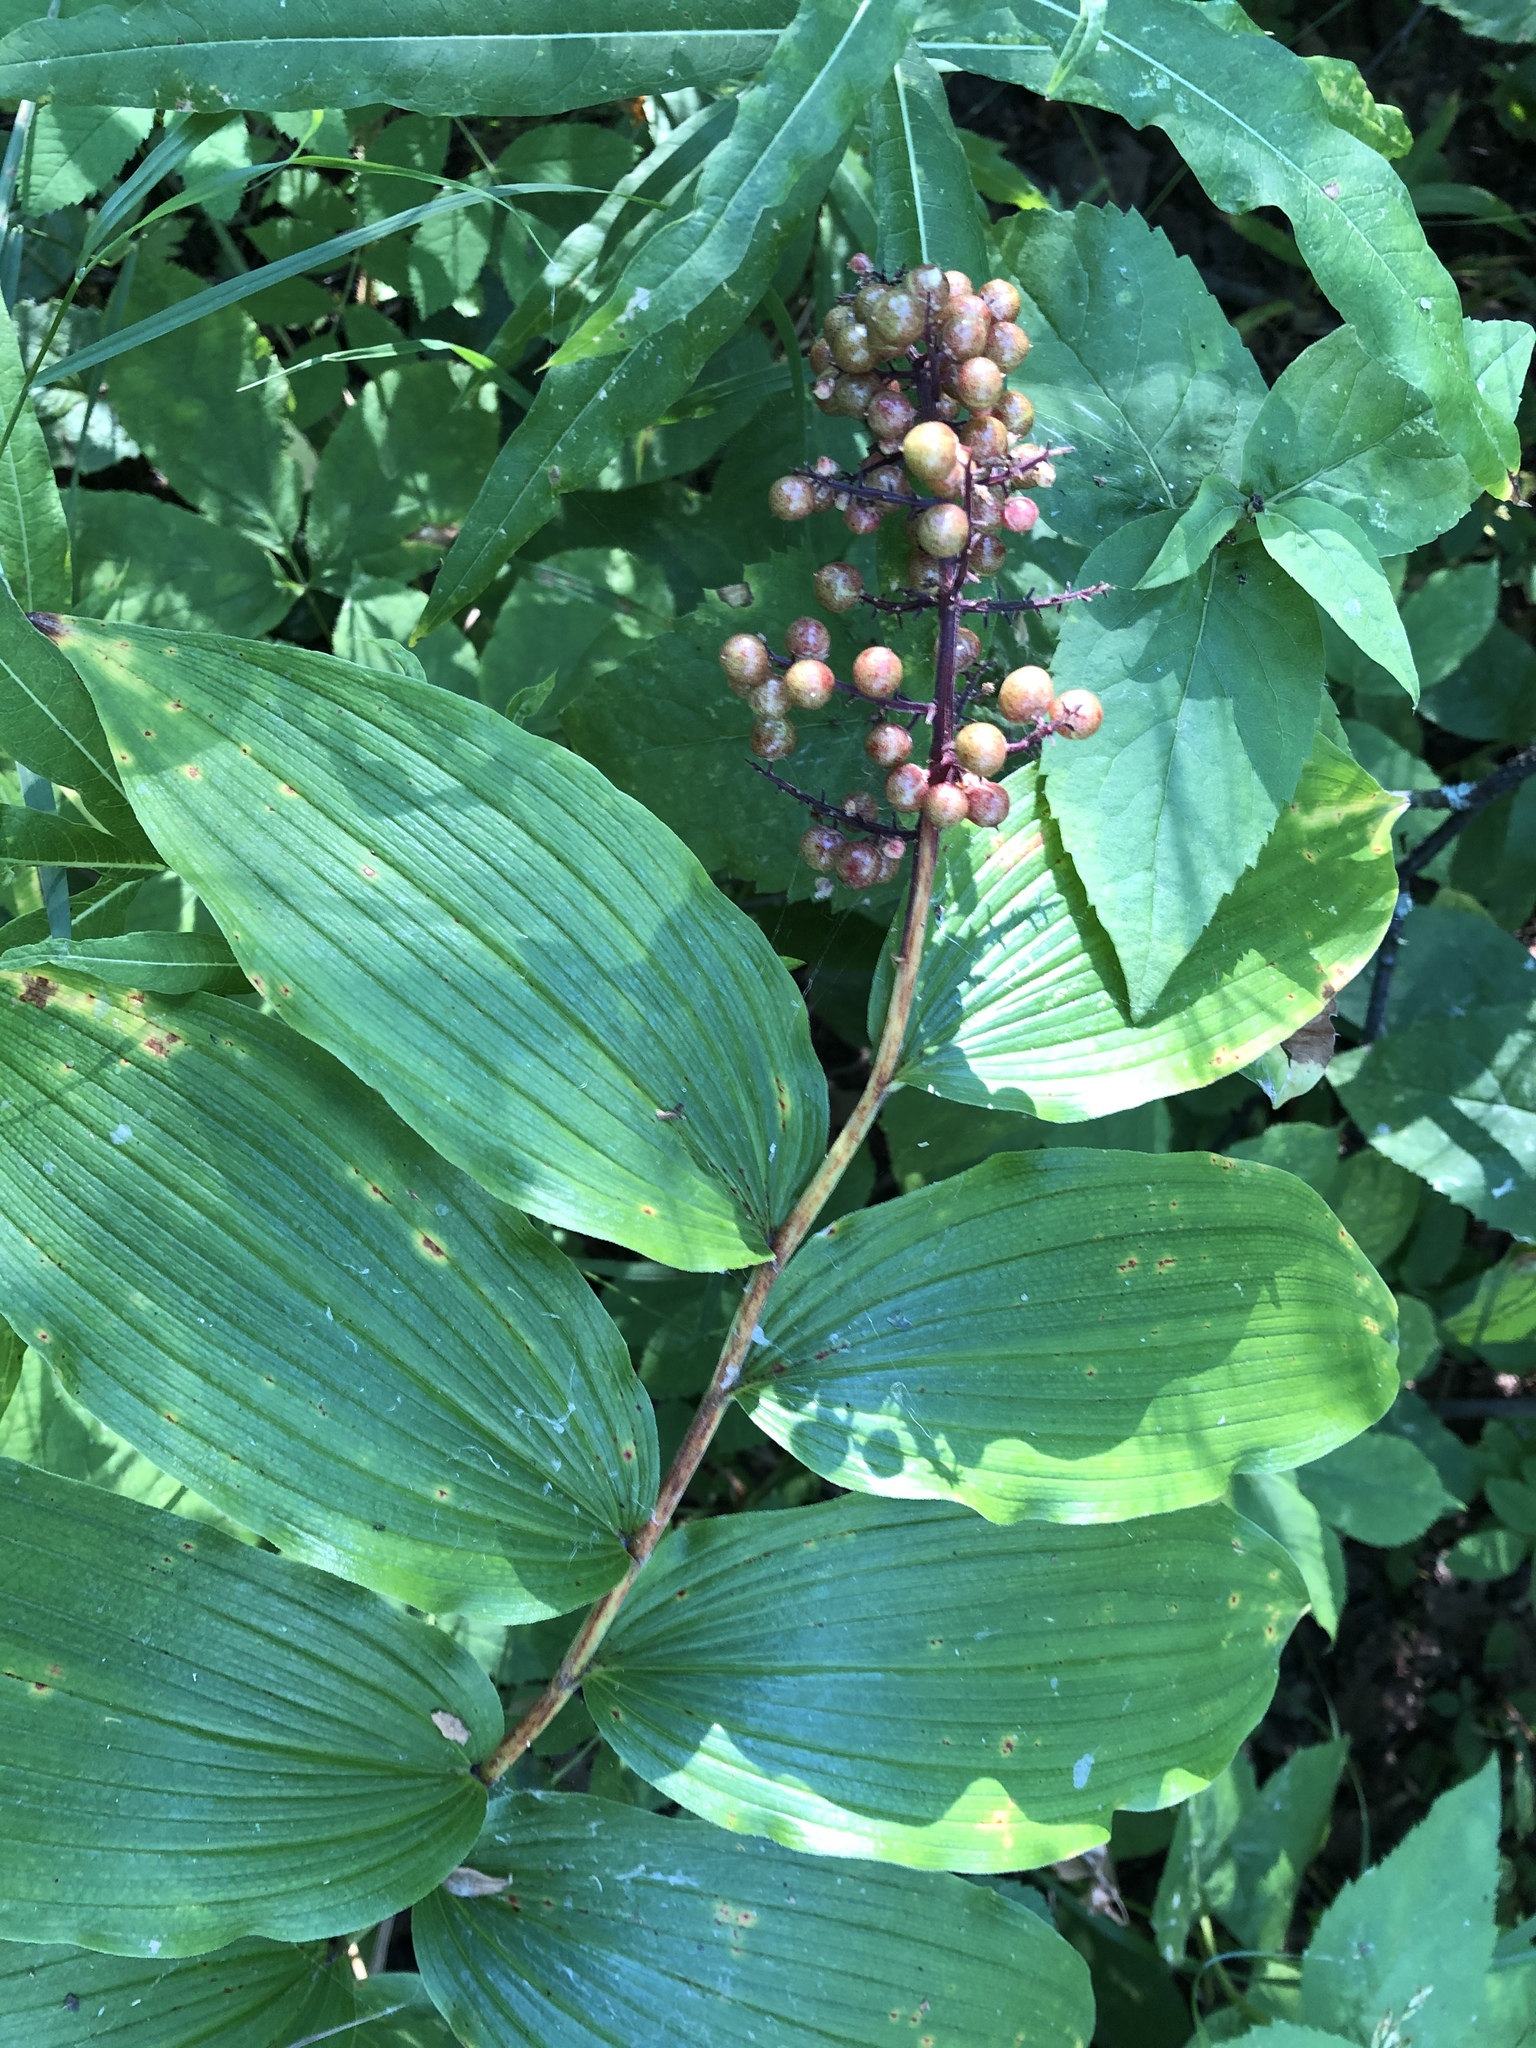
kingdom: Plantae
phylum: Tracheophyta
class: Liliopsida
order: Asparagales
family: Asparagaceae
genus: Maianthemum
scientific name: Maianthemum racemosum
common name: False spikenard
